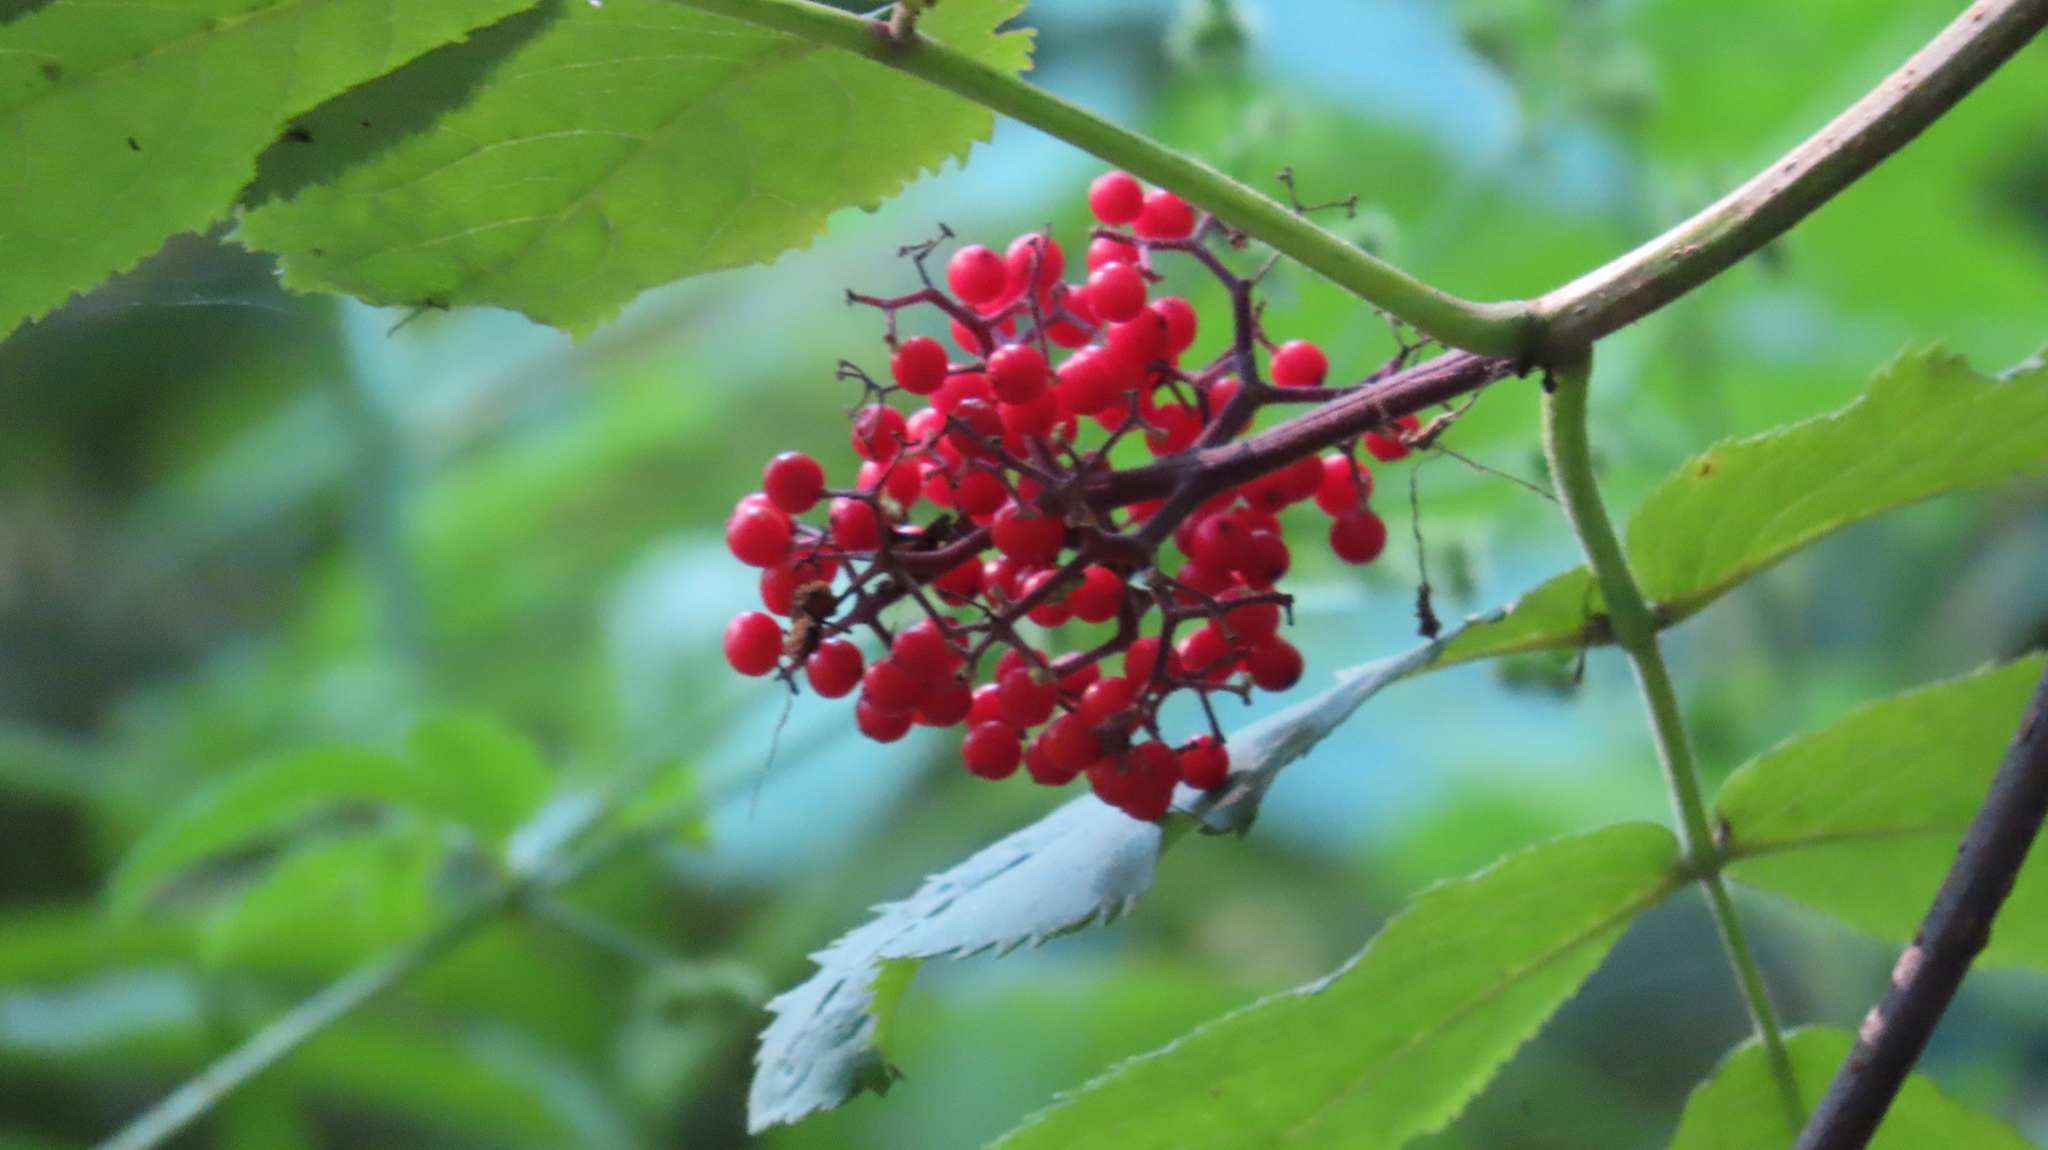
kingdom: Plantae
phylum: Tracheophyta
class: Magnoliopsida
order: Dipsacales
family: Viburnaceae
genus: Sambucus
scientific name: Sambucus racemosa
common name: Red-berried elder
